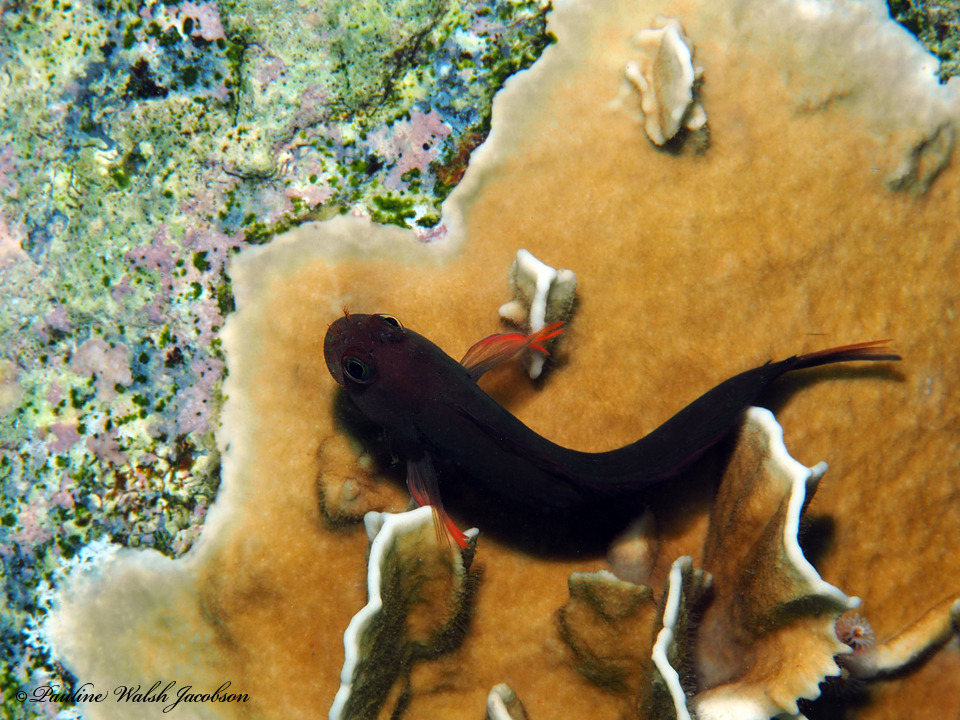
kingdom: Animalia
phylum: Chordata
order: Perciformes
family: Blenniidae
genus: Ophioblennius
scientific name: Ophioblennius macclurei
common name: Redlip blenny
